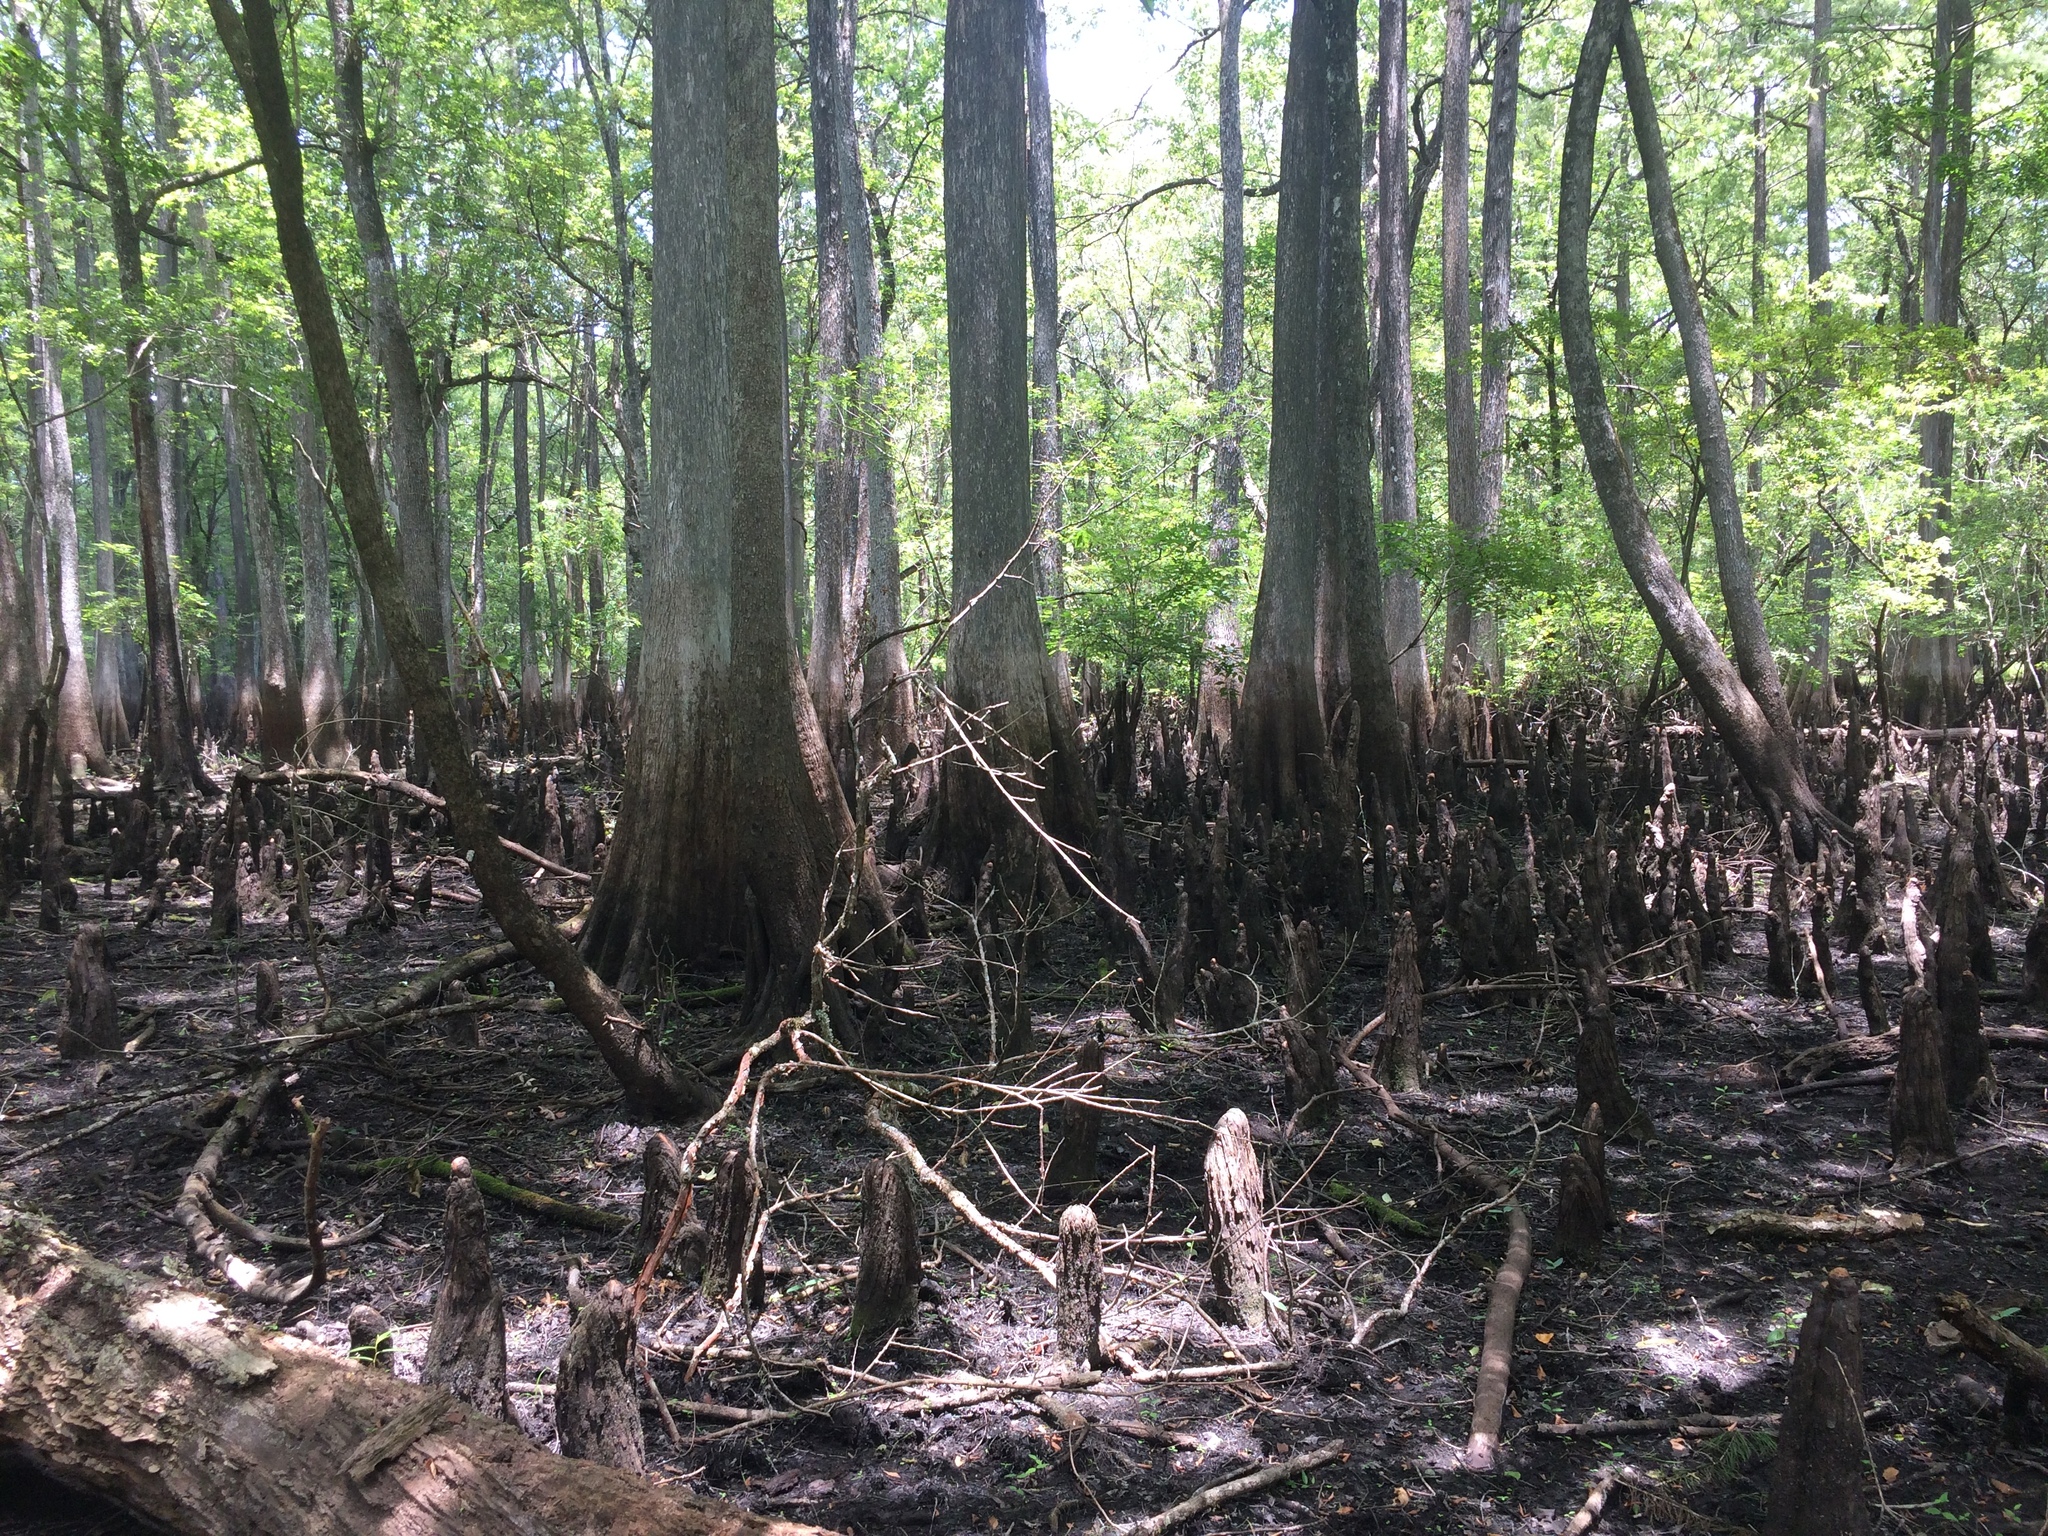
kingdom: Plantae
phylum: Tracheophyta
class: Pinopsida
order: Pinales
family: Cupressaceae
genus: Taxodium
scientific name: Taxodium distichum
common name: Bald cypress
